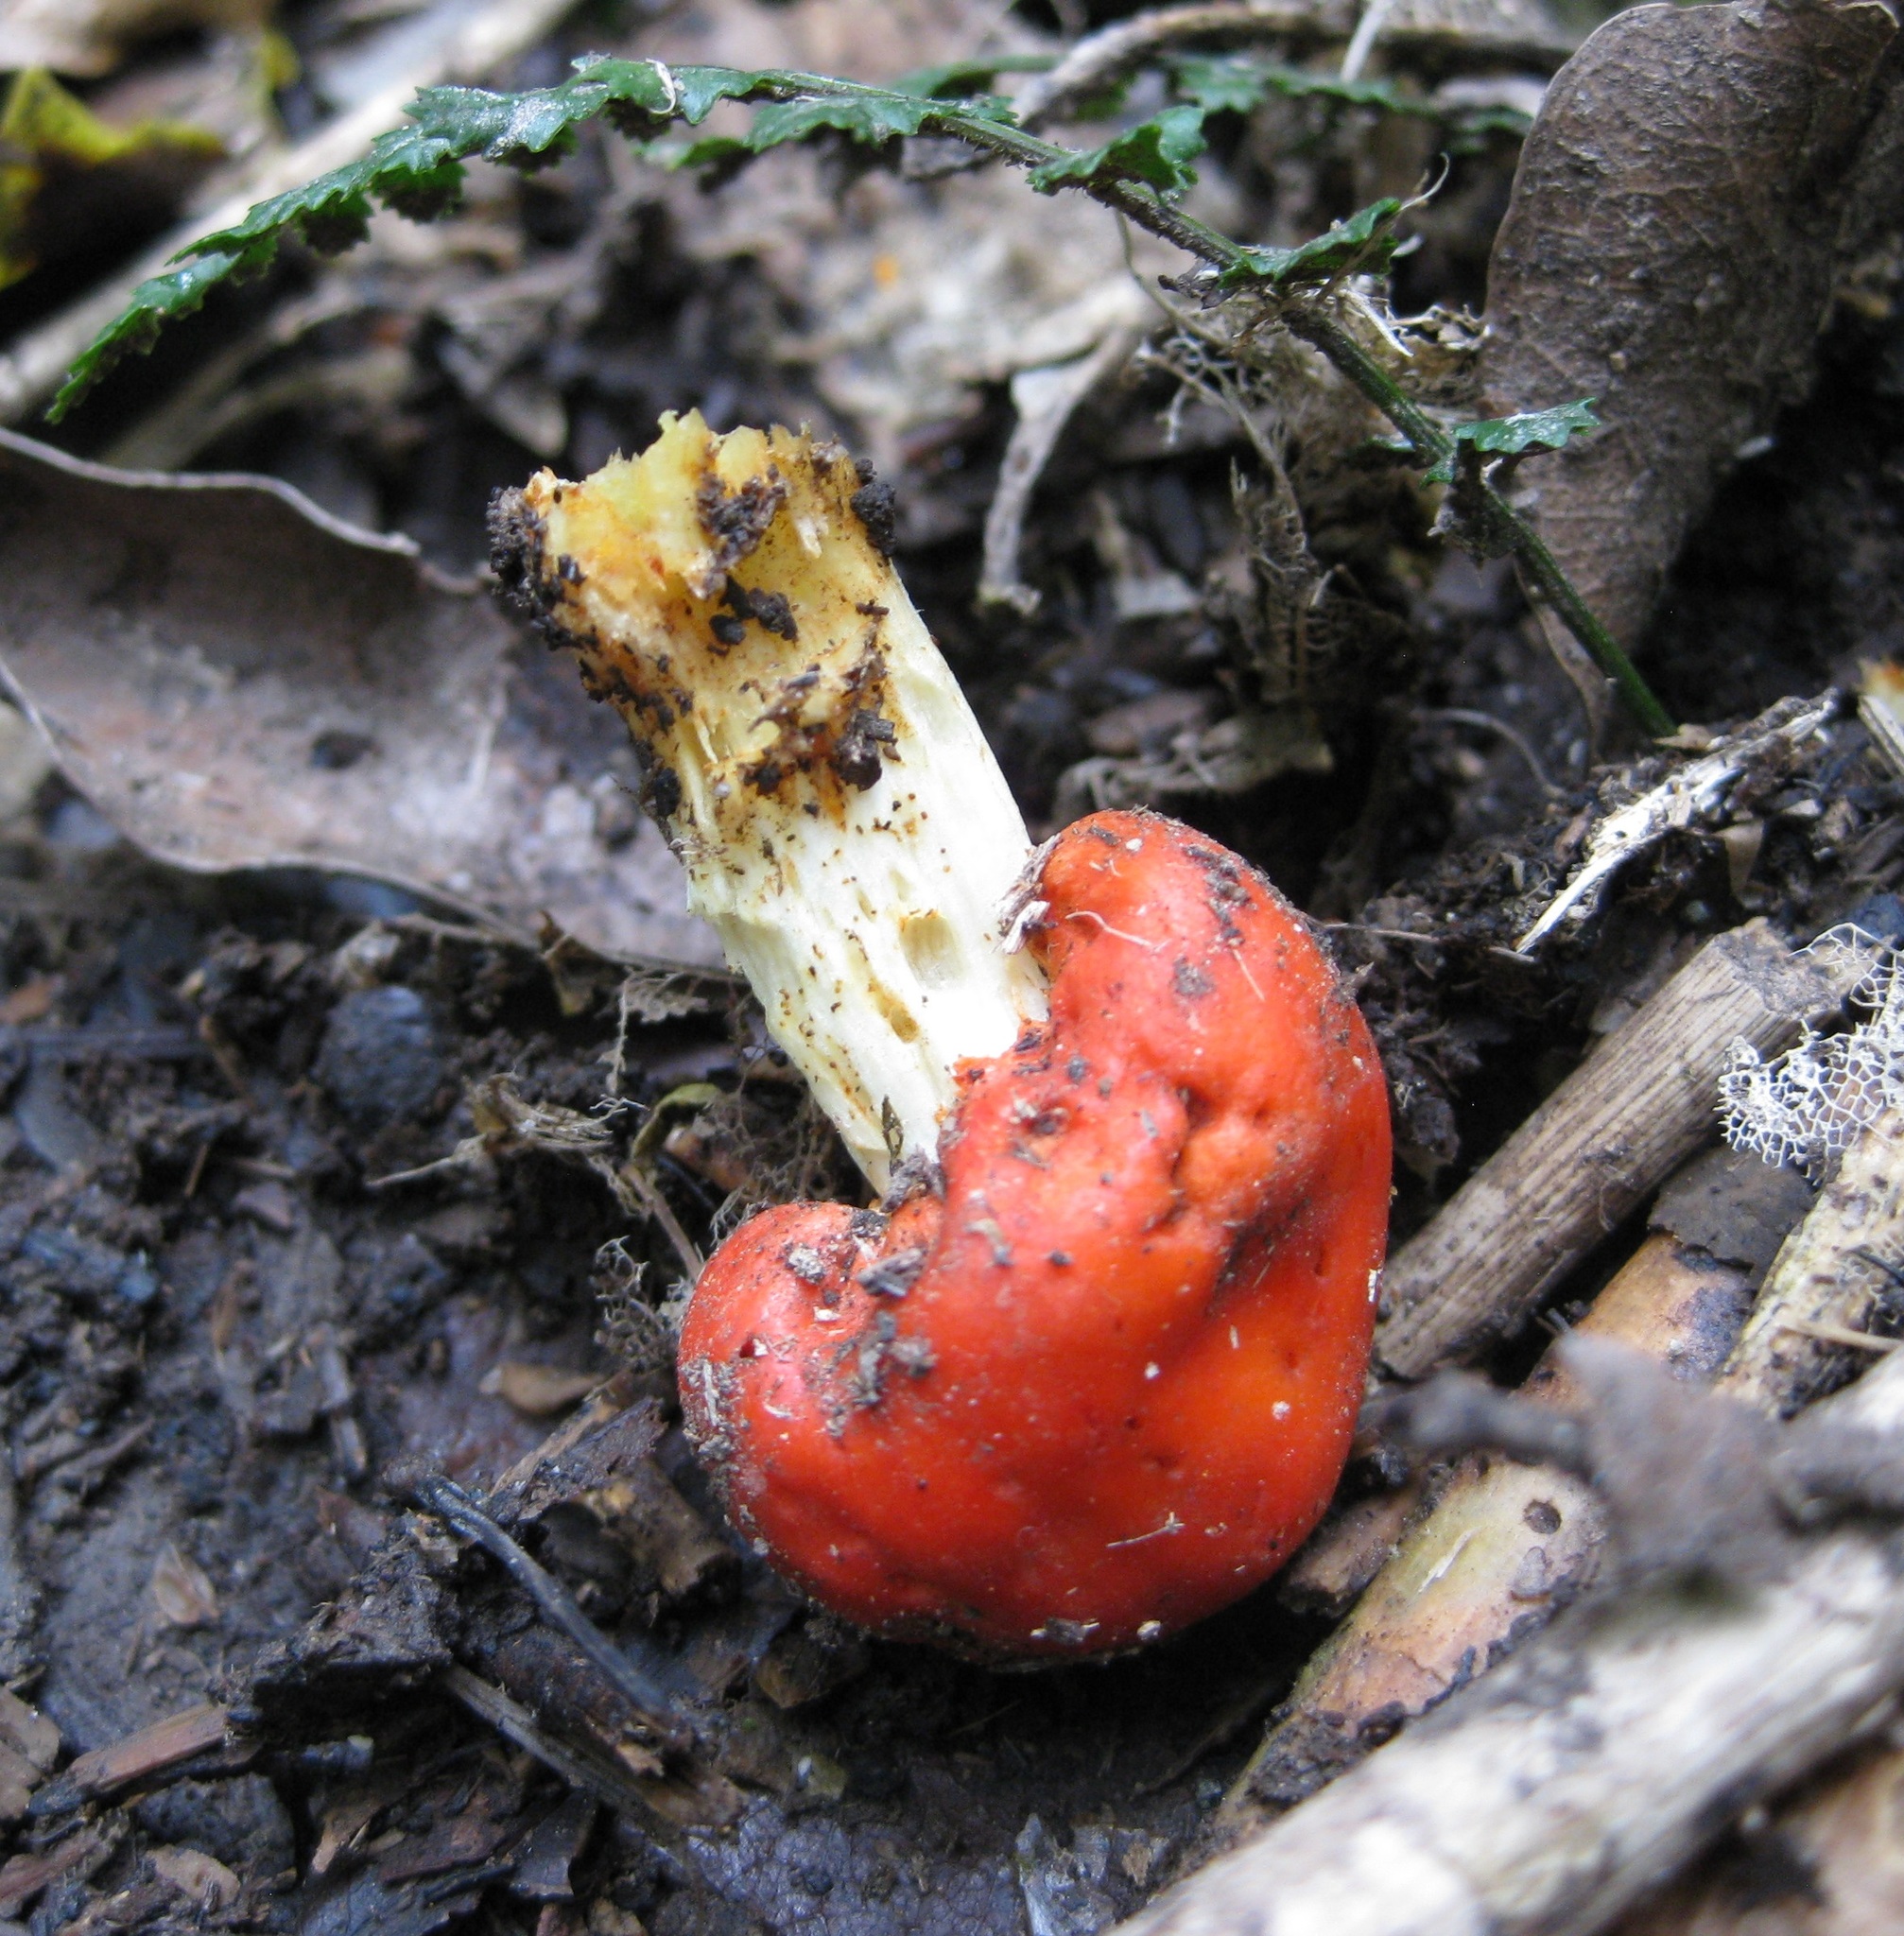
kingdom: Fungi
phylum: Basidiomycota
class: Agaricomycetes
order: Agaricales
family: Strophariaceae
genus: Leratiomyces
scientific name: Leratiomyces erythrocephalus
